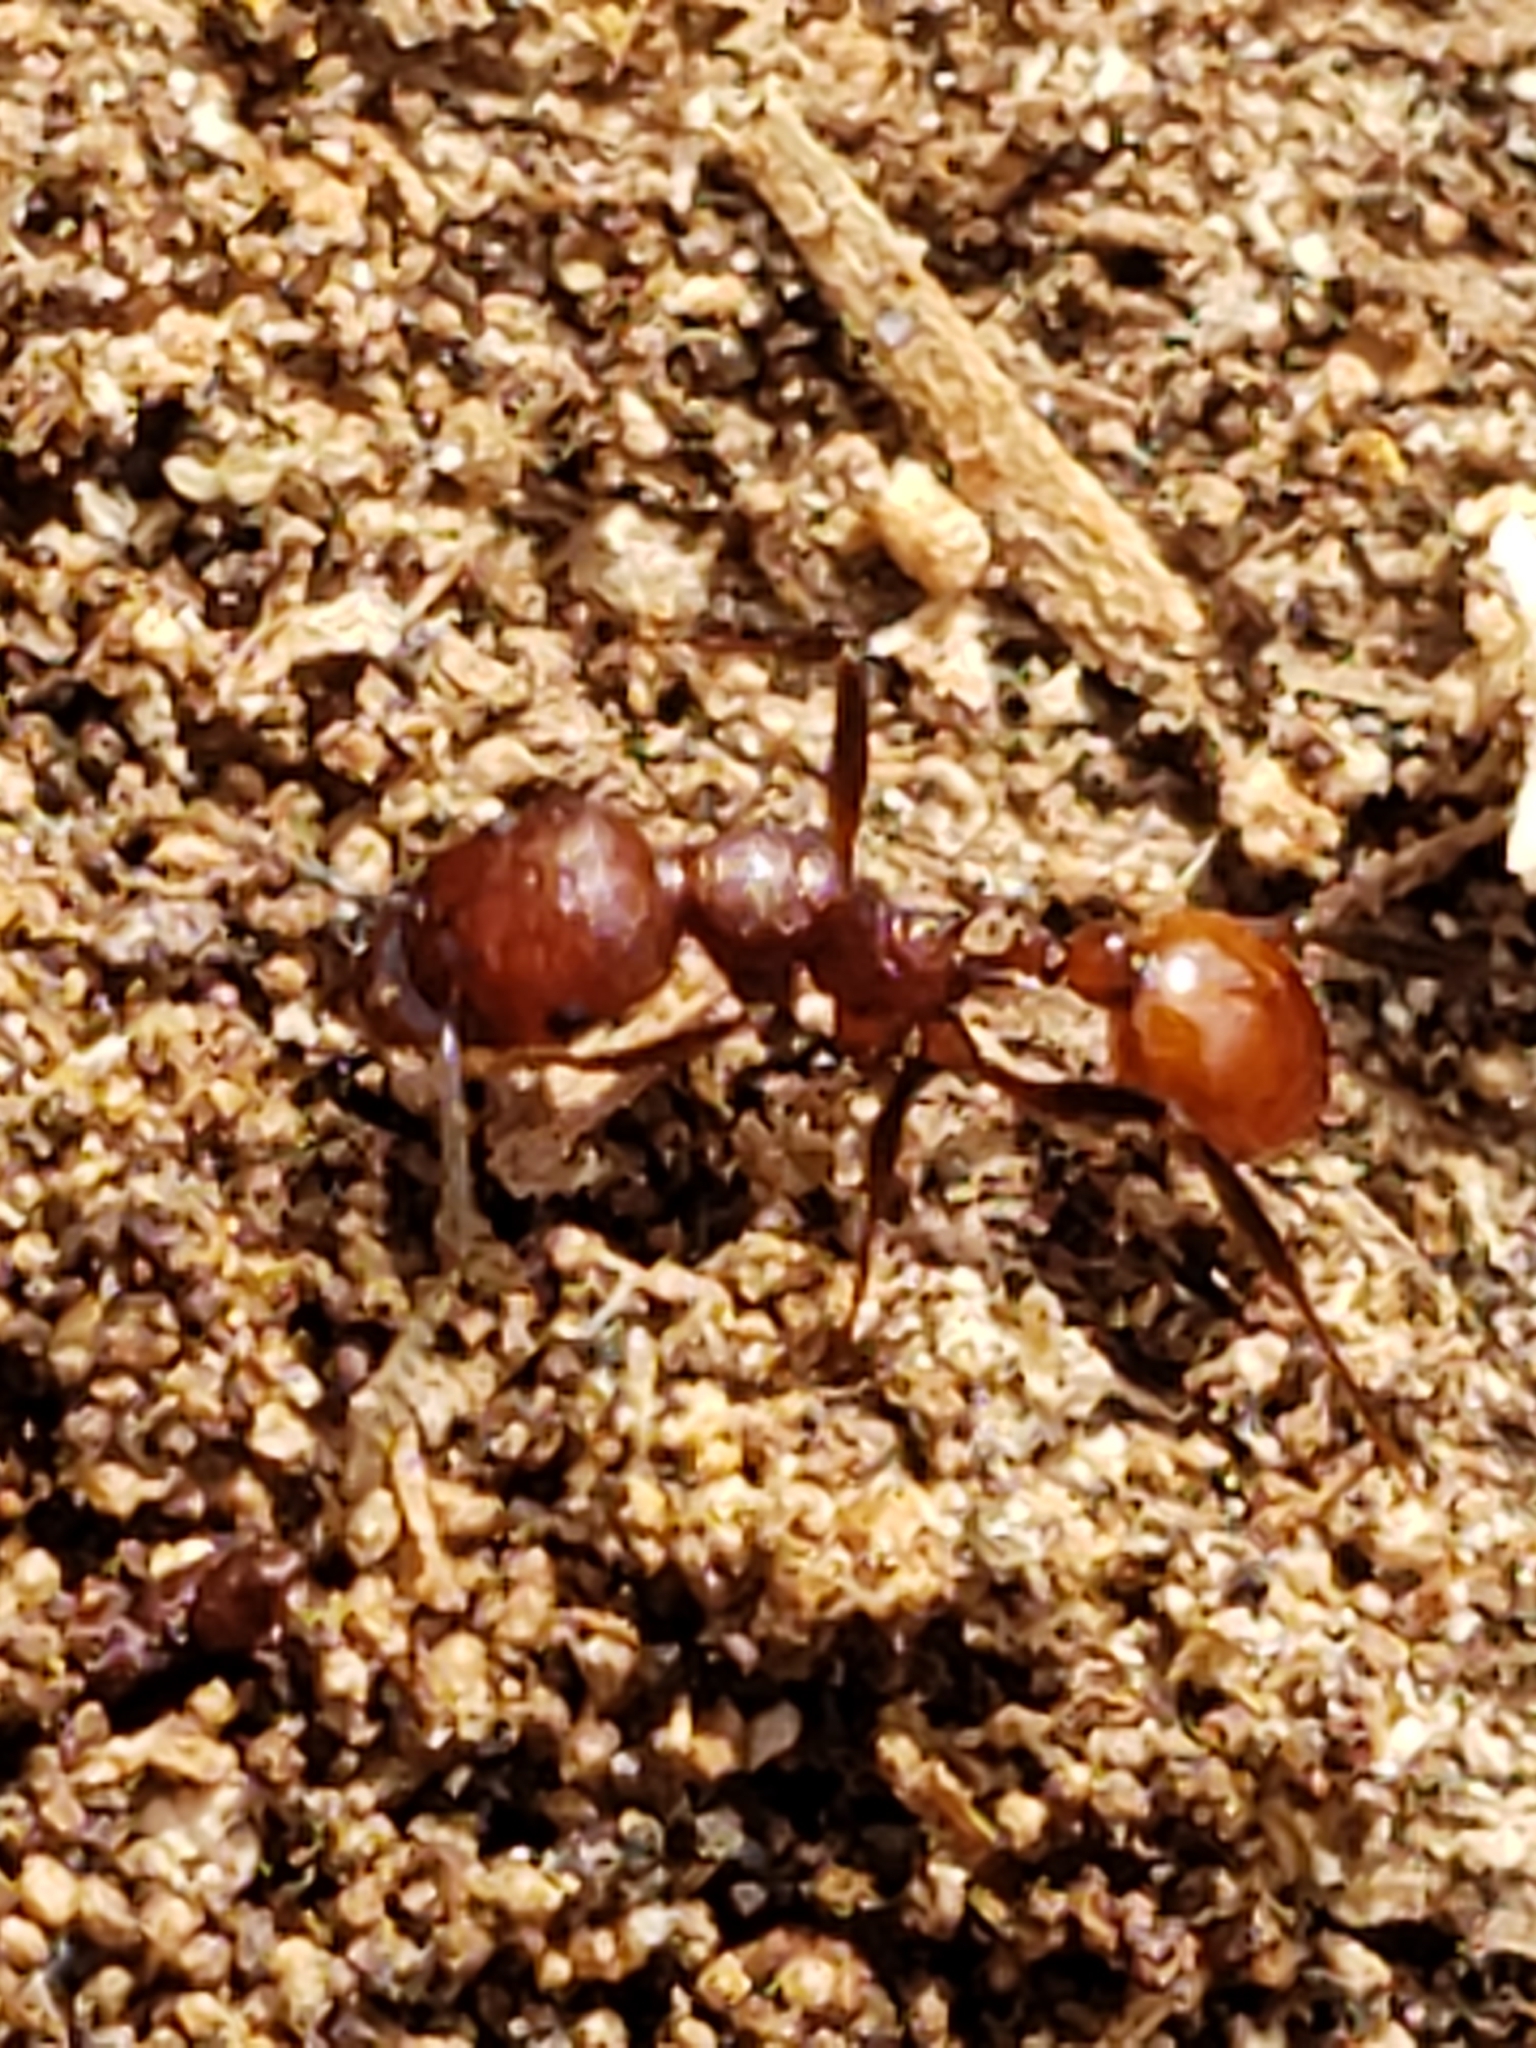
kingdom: Animalia
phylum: Arthropoda
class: Insecta
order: Hymenoptera
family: Formicidae
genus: Aphaenogaster
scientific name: Aphaenogaster tennesseensis
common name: Tennessee thread-waisted ant
